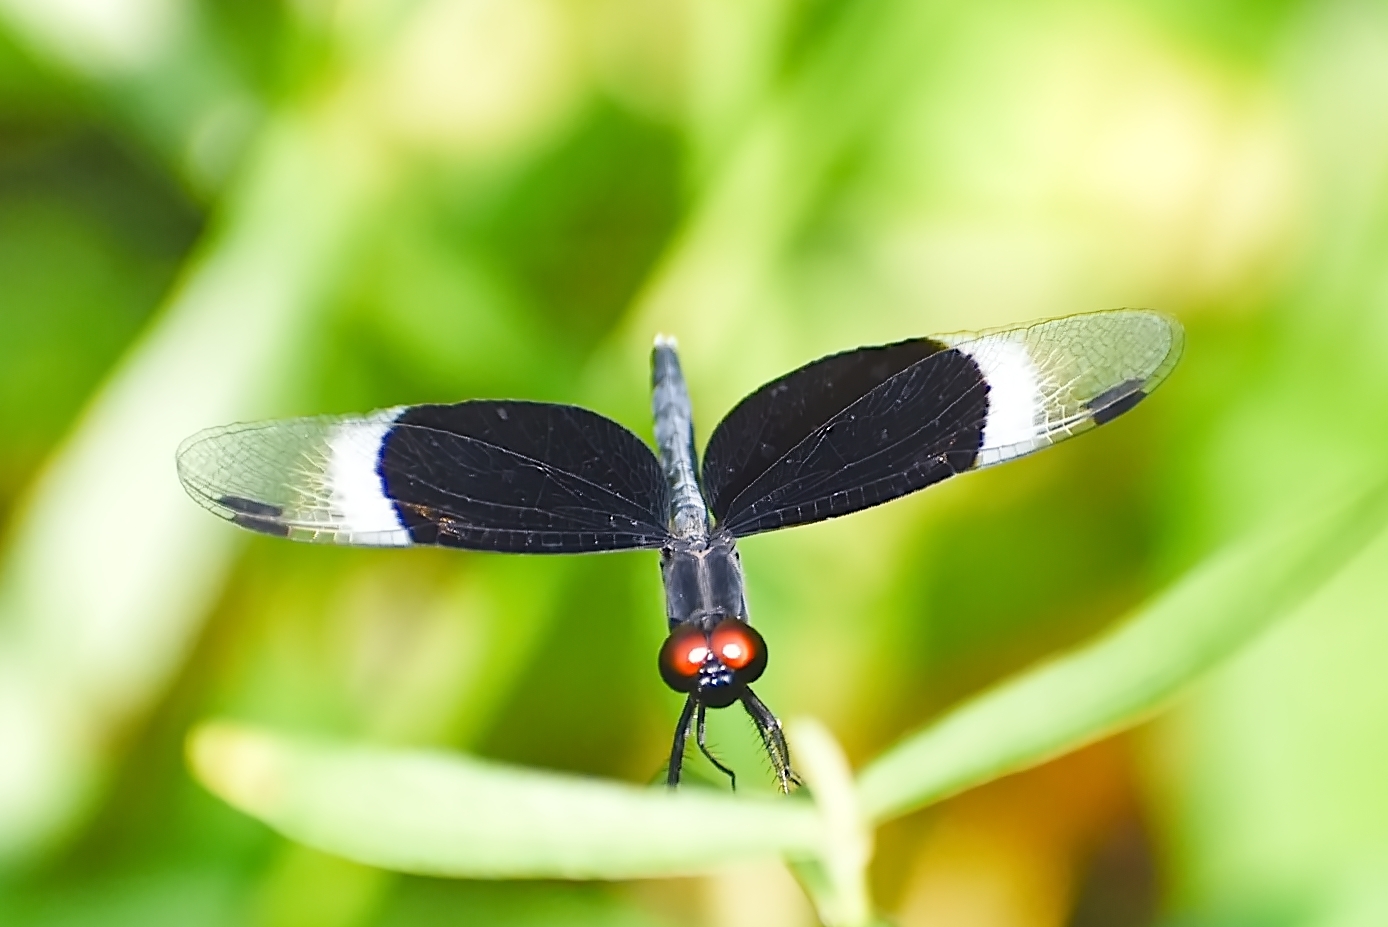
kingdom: Animalia
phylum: Arthropoda
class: Insecta
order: Odonata
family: Libellulidae
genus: Neurothemis
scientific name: Neurothemis tullia
